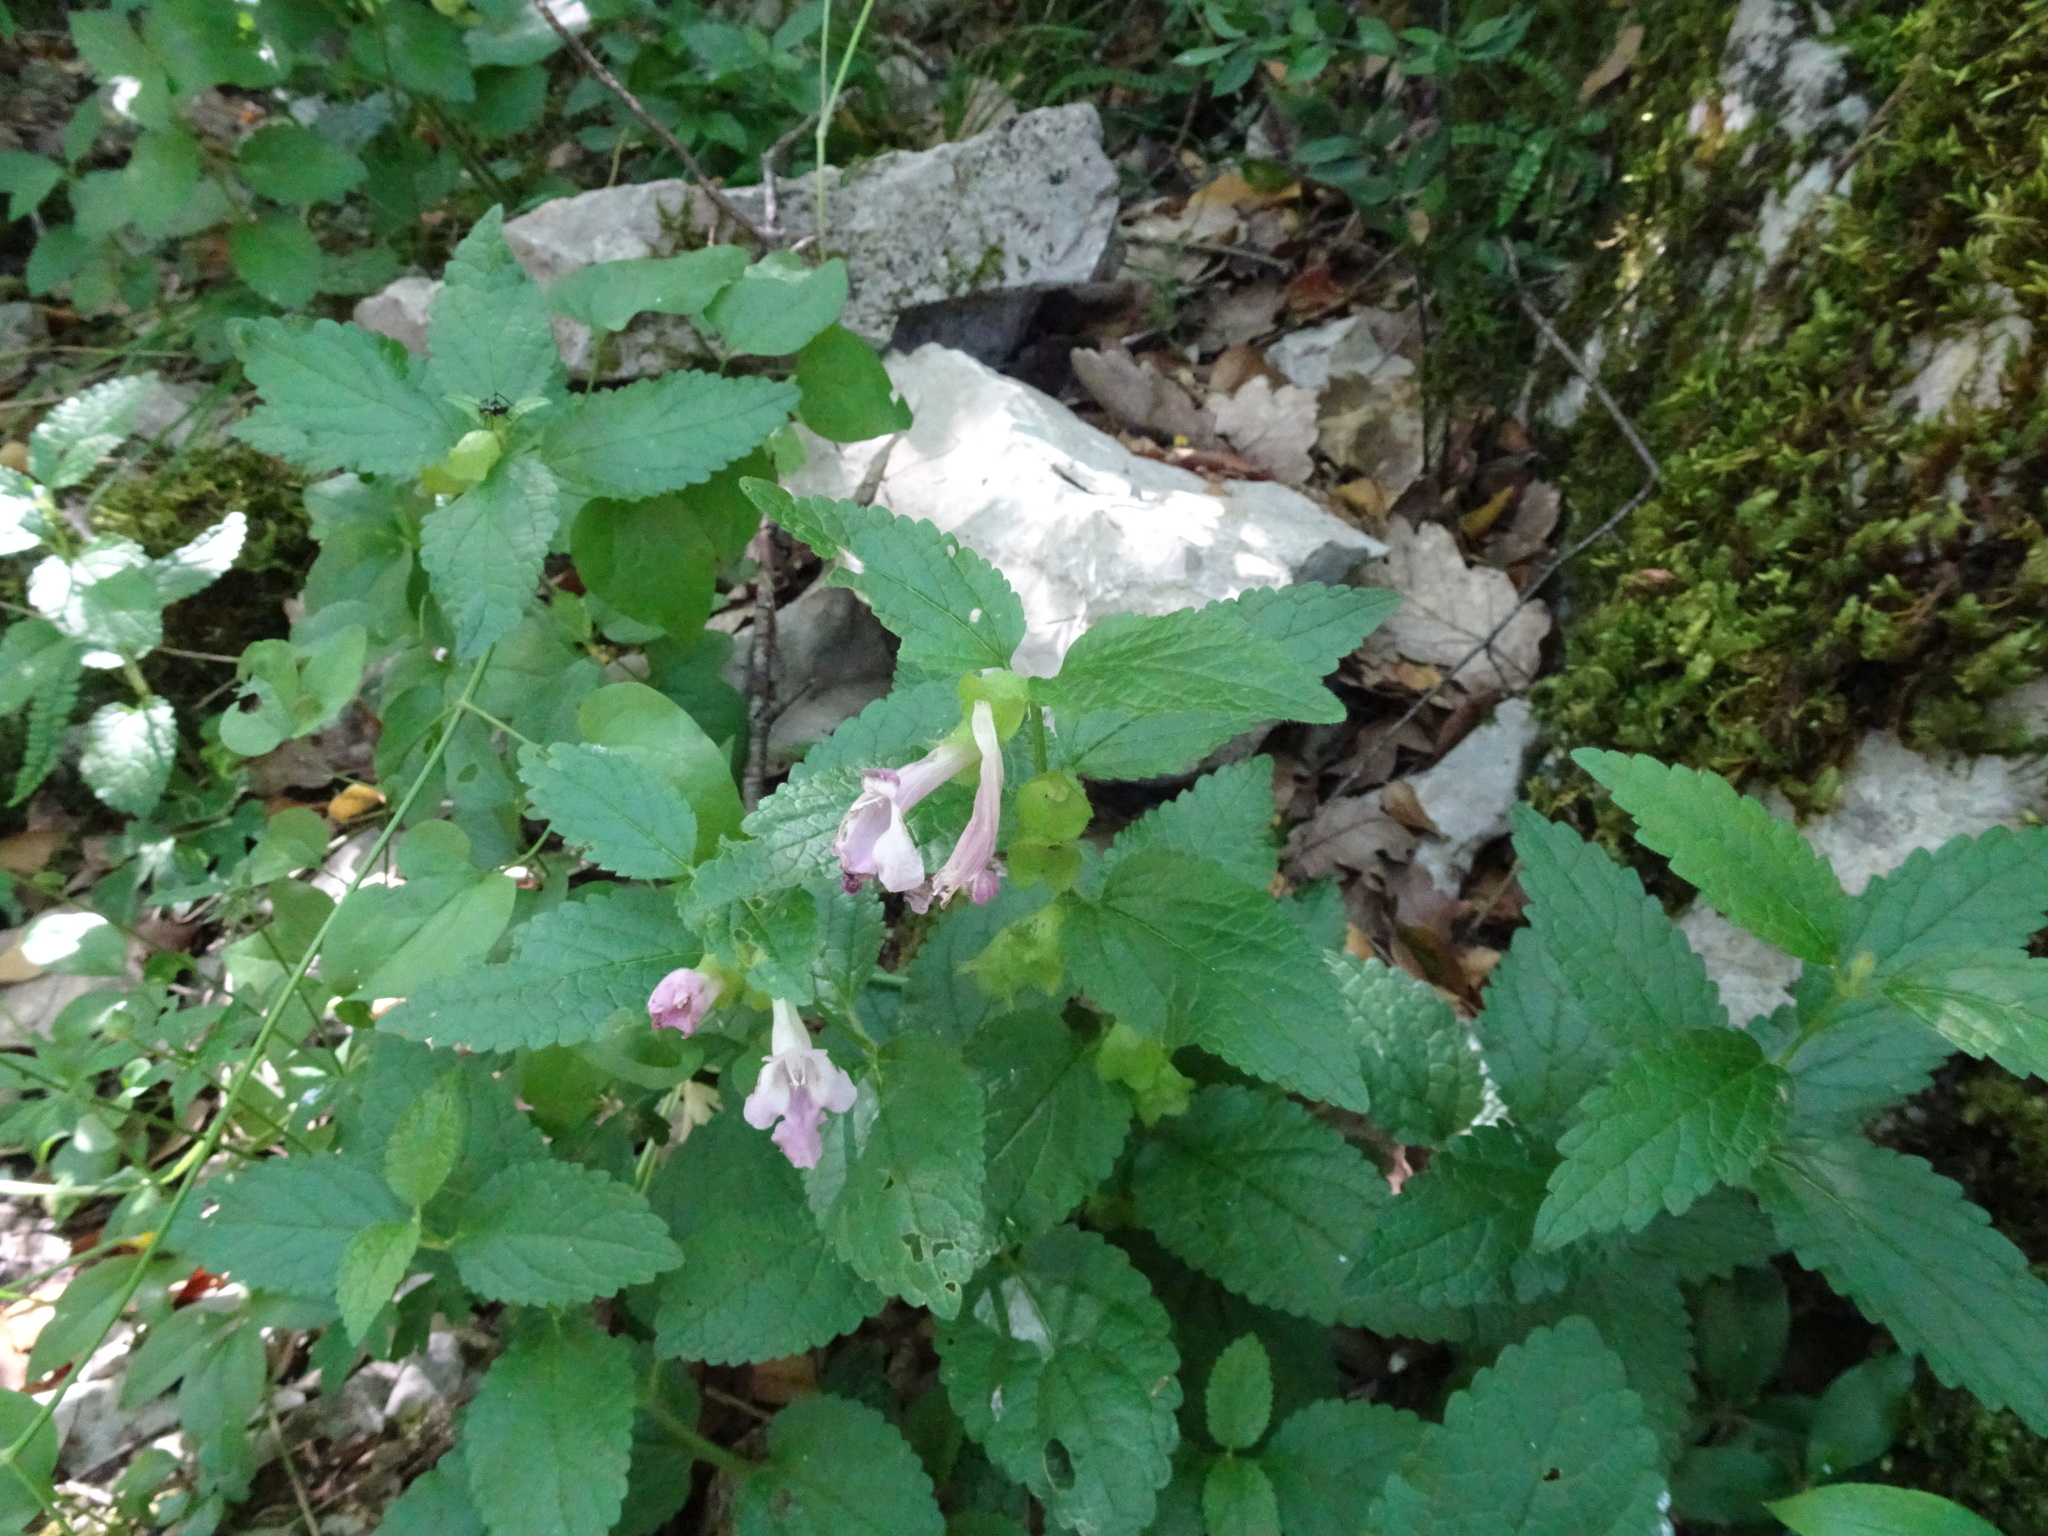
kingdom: Plantae
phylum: Tracheophyta
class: Magnoliopsida
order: Lamiales
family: Lamiaceae
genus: Melittis
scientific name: Melittis melissophyllum
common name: Bastard balm
